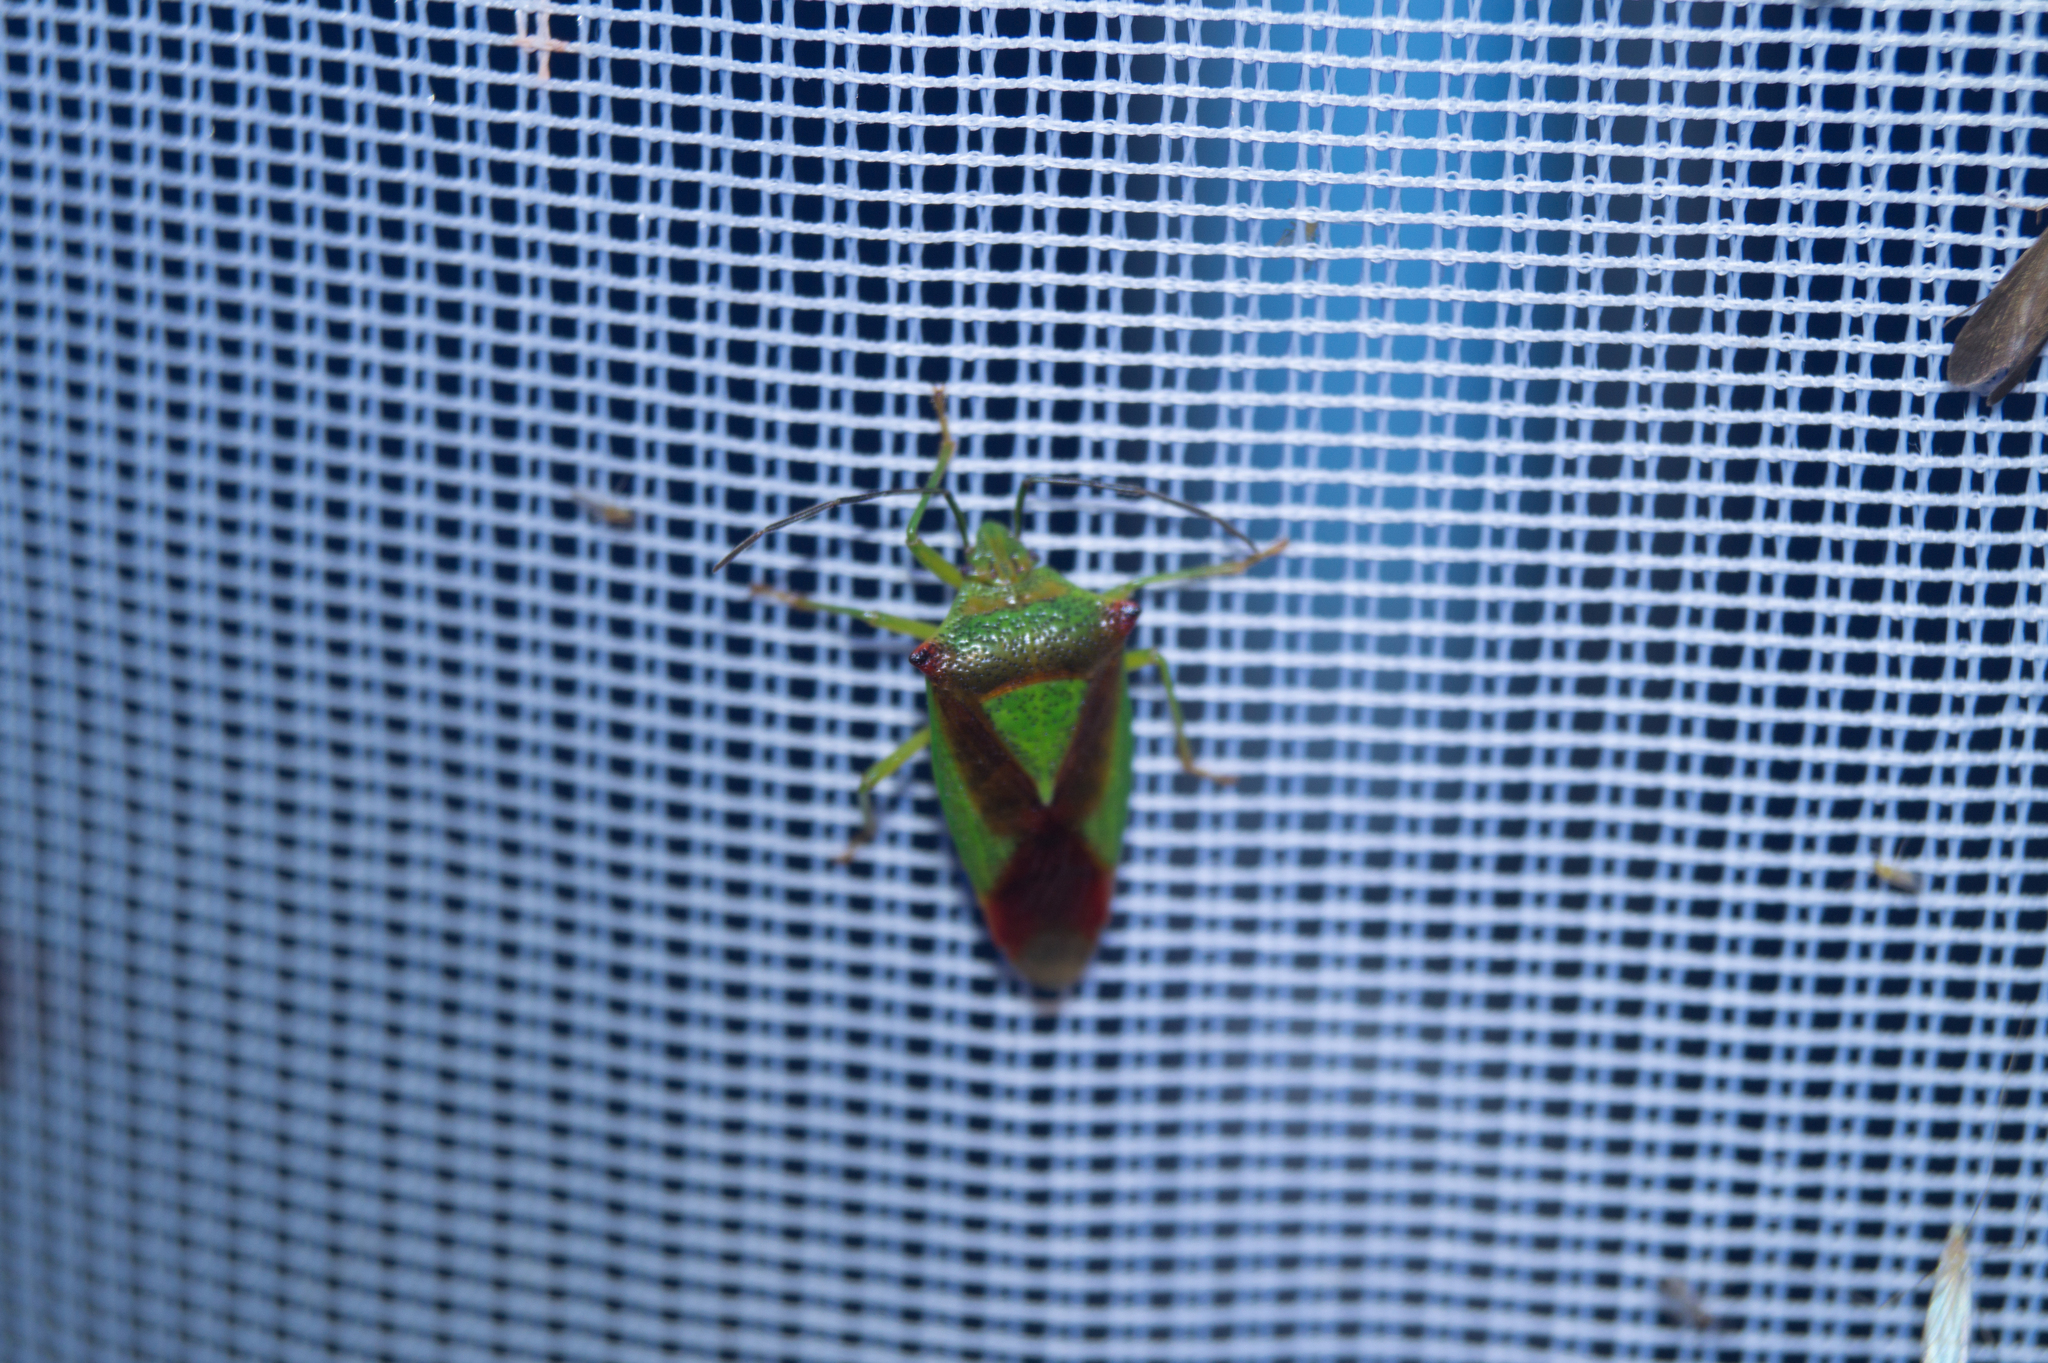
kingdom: Animalia
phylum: Arthropoda
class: Insecta
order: Hemiptera
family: Acanthosomatidae
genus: Acanthosoma
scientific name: Acanthosoma haemorrhoidale
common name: Hawthorn shieldbug
